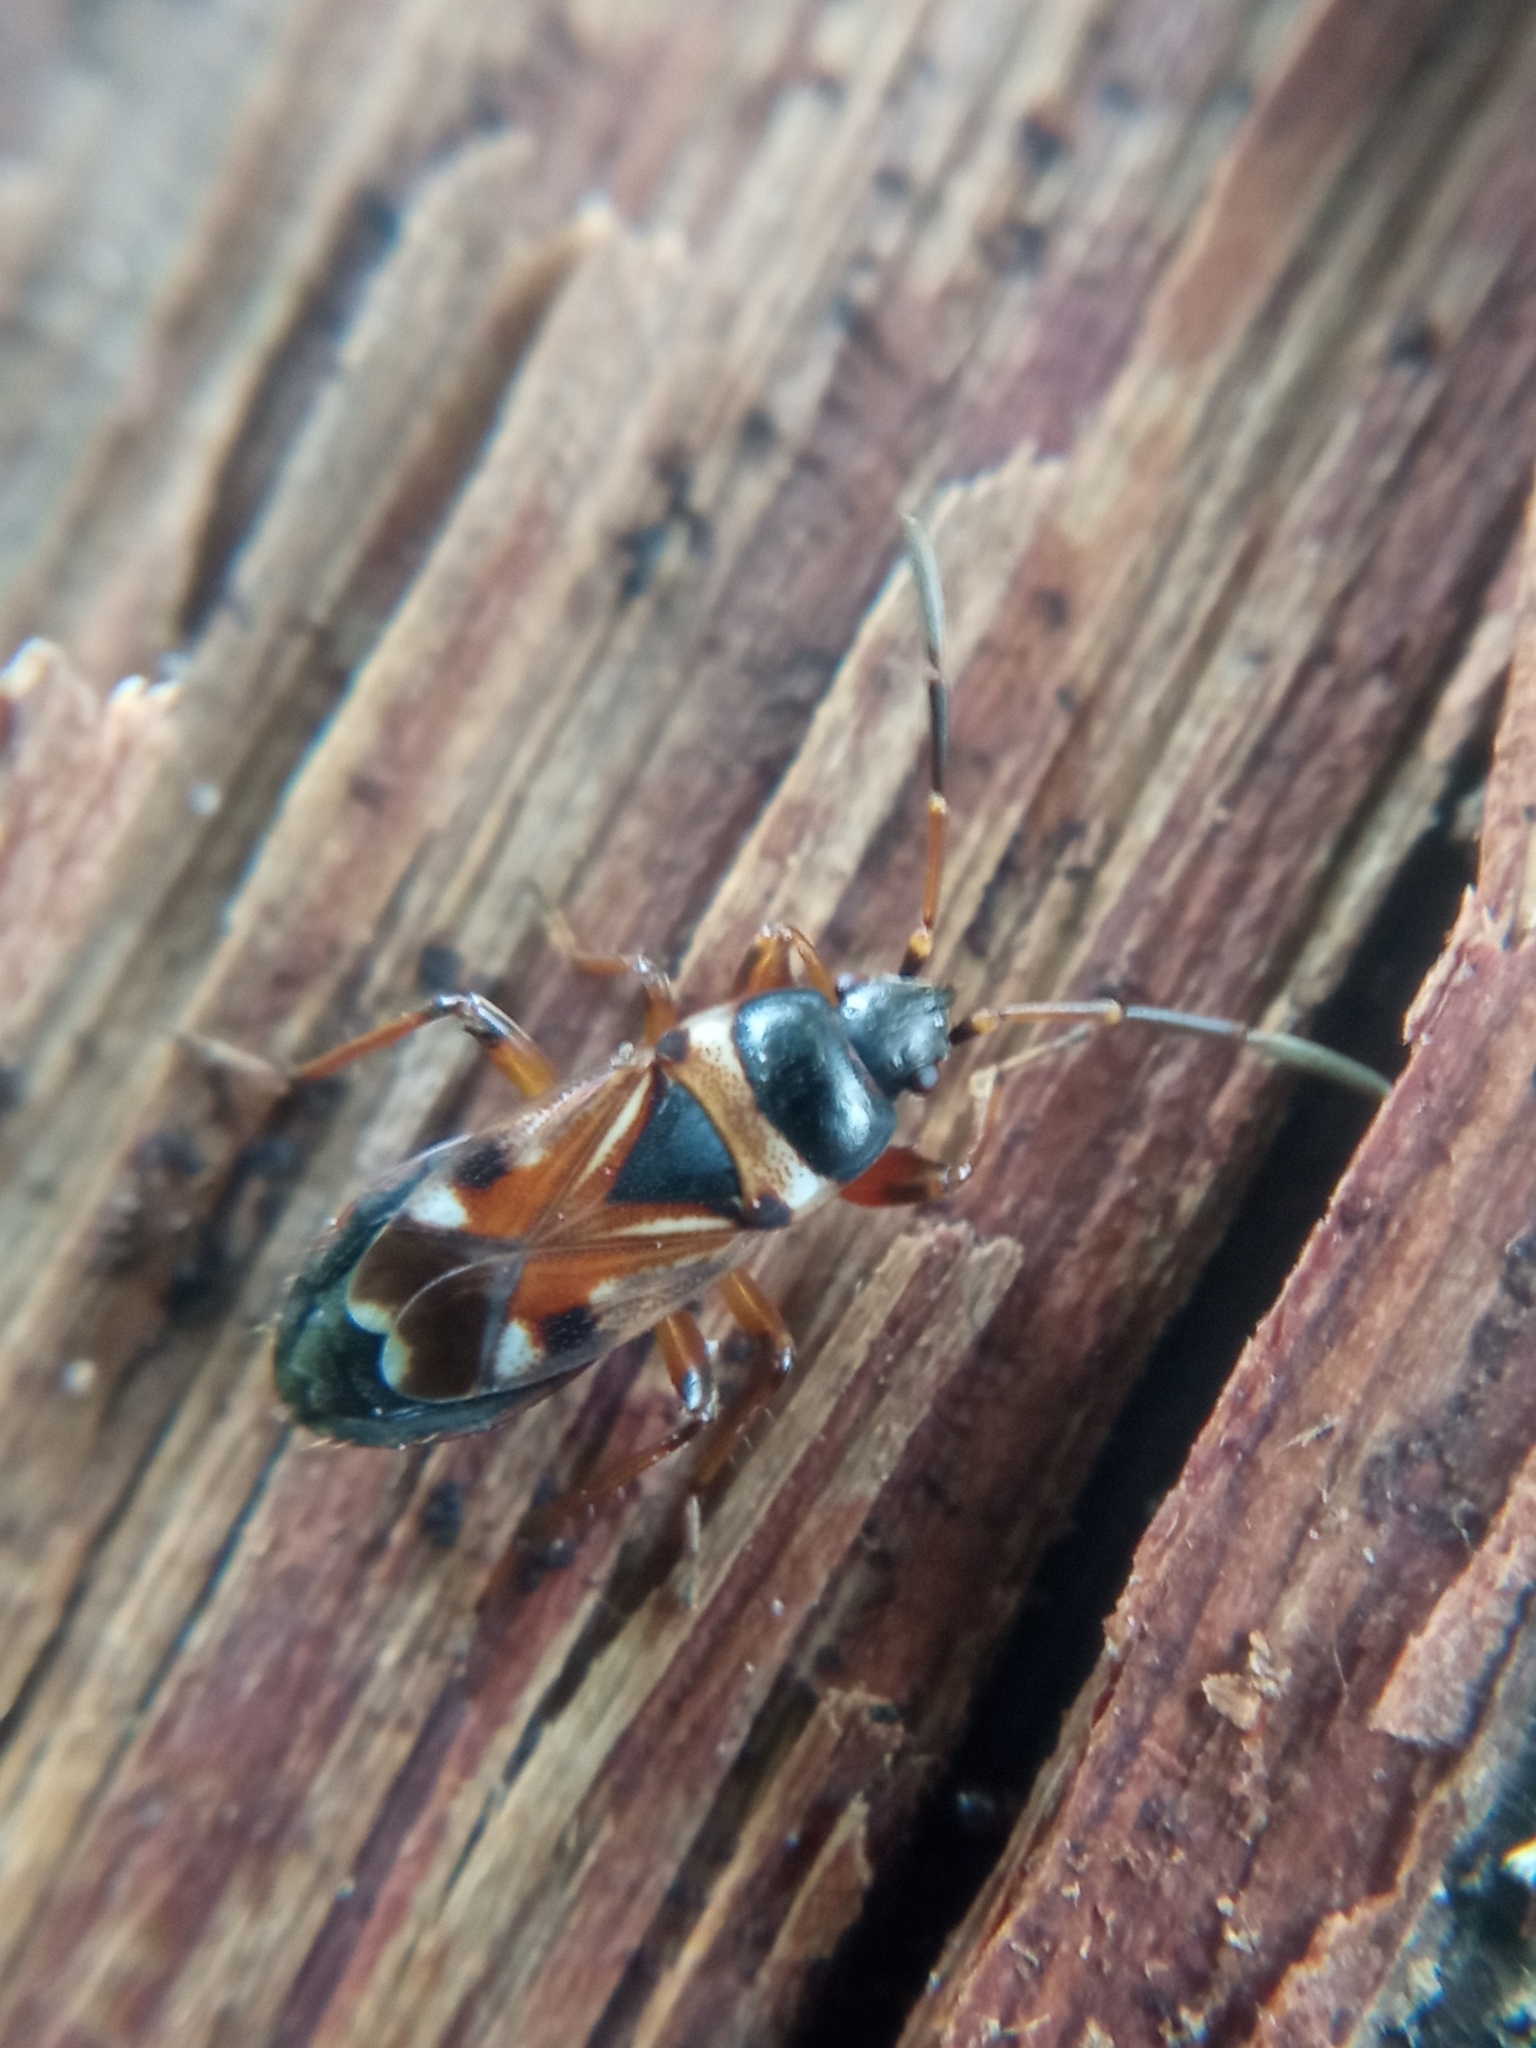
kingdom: Animalia
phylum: Arthropoda
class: Insecta
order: Hemiptera
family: Rhyparochromidae
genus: Raglius
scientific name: Raglius alboacuminatus
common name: Dirt-colored seed bug
